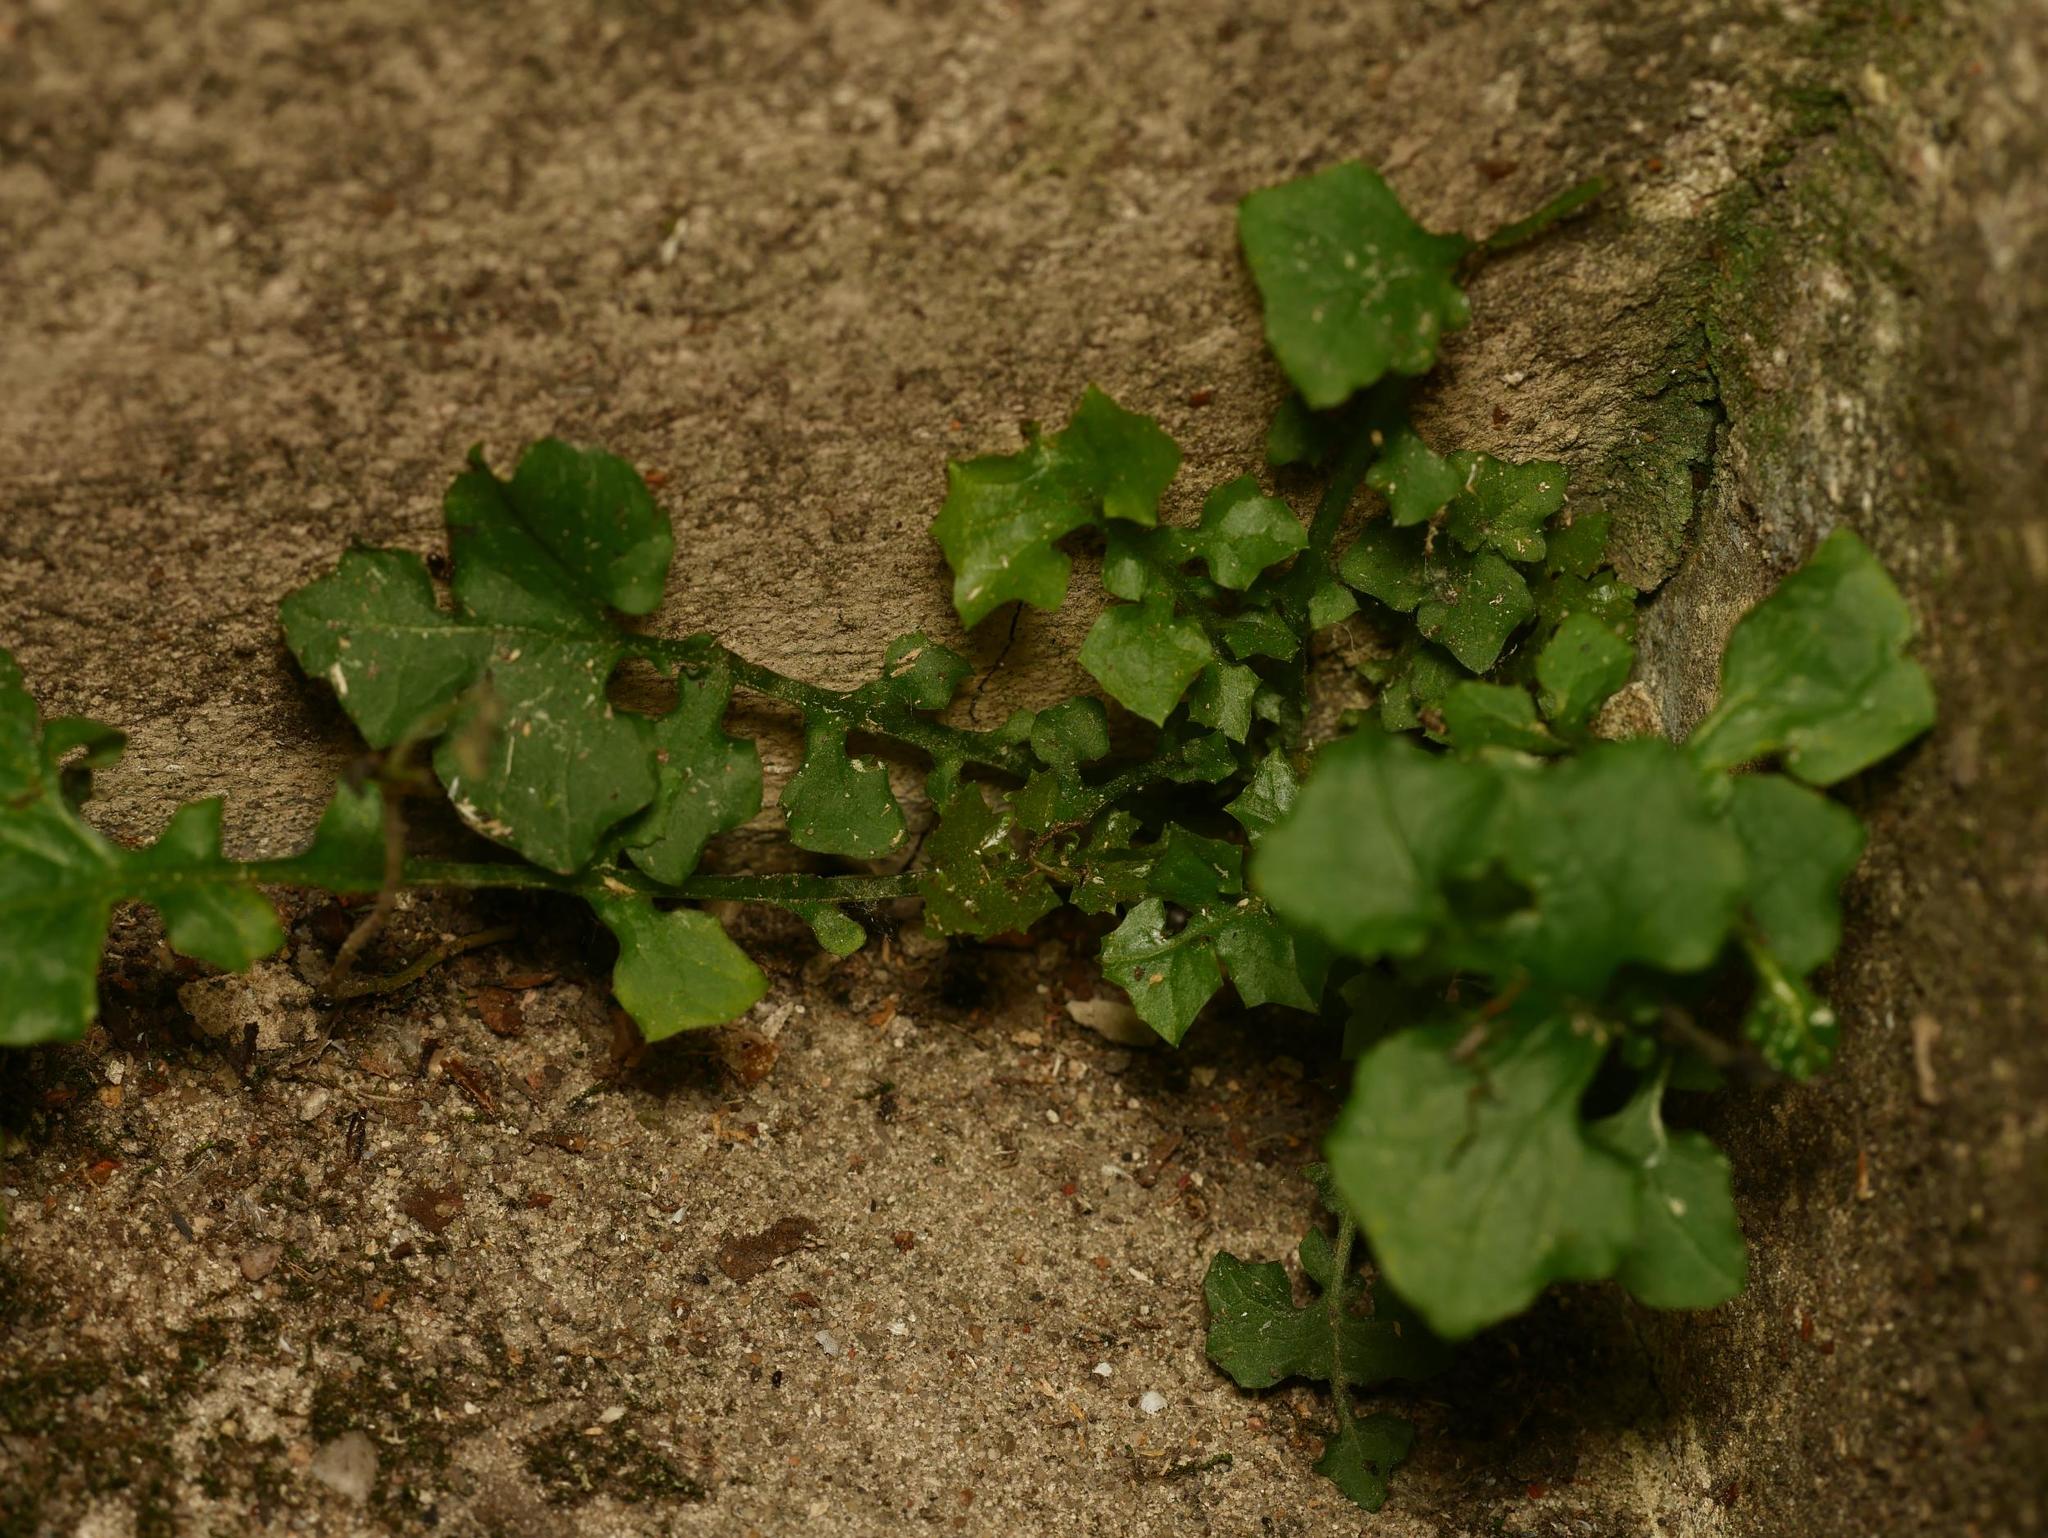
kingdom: Plantae
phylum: Tracheophyta
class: Magnoliopsida
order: Asterales
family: Asteraceae
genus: Mycelis
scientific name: Mycelis muralis
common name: Wall lettuce
